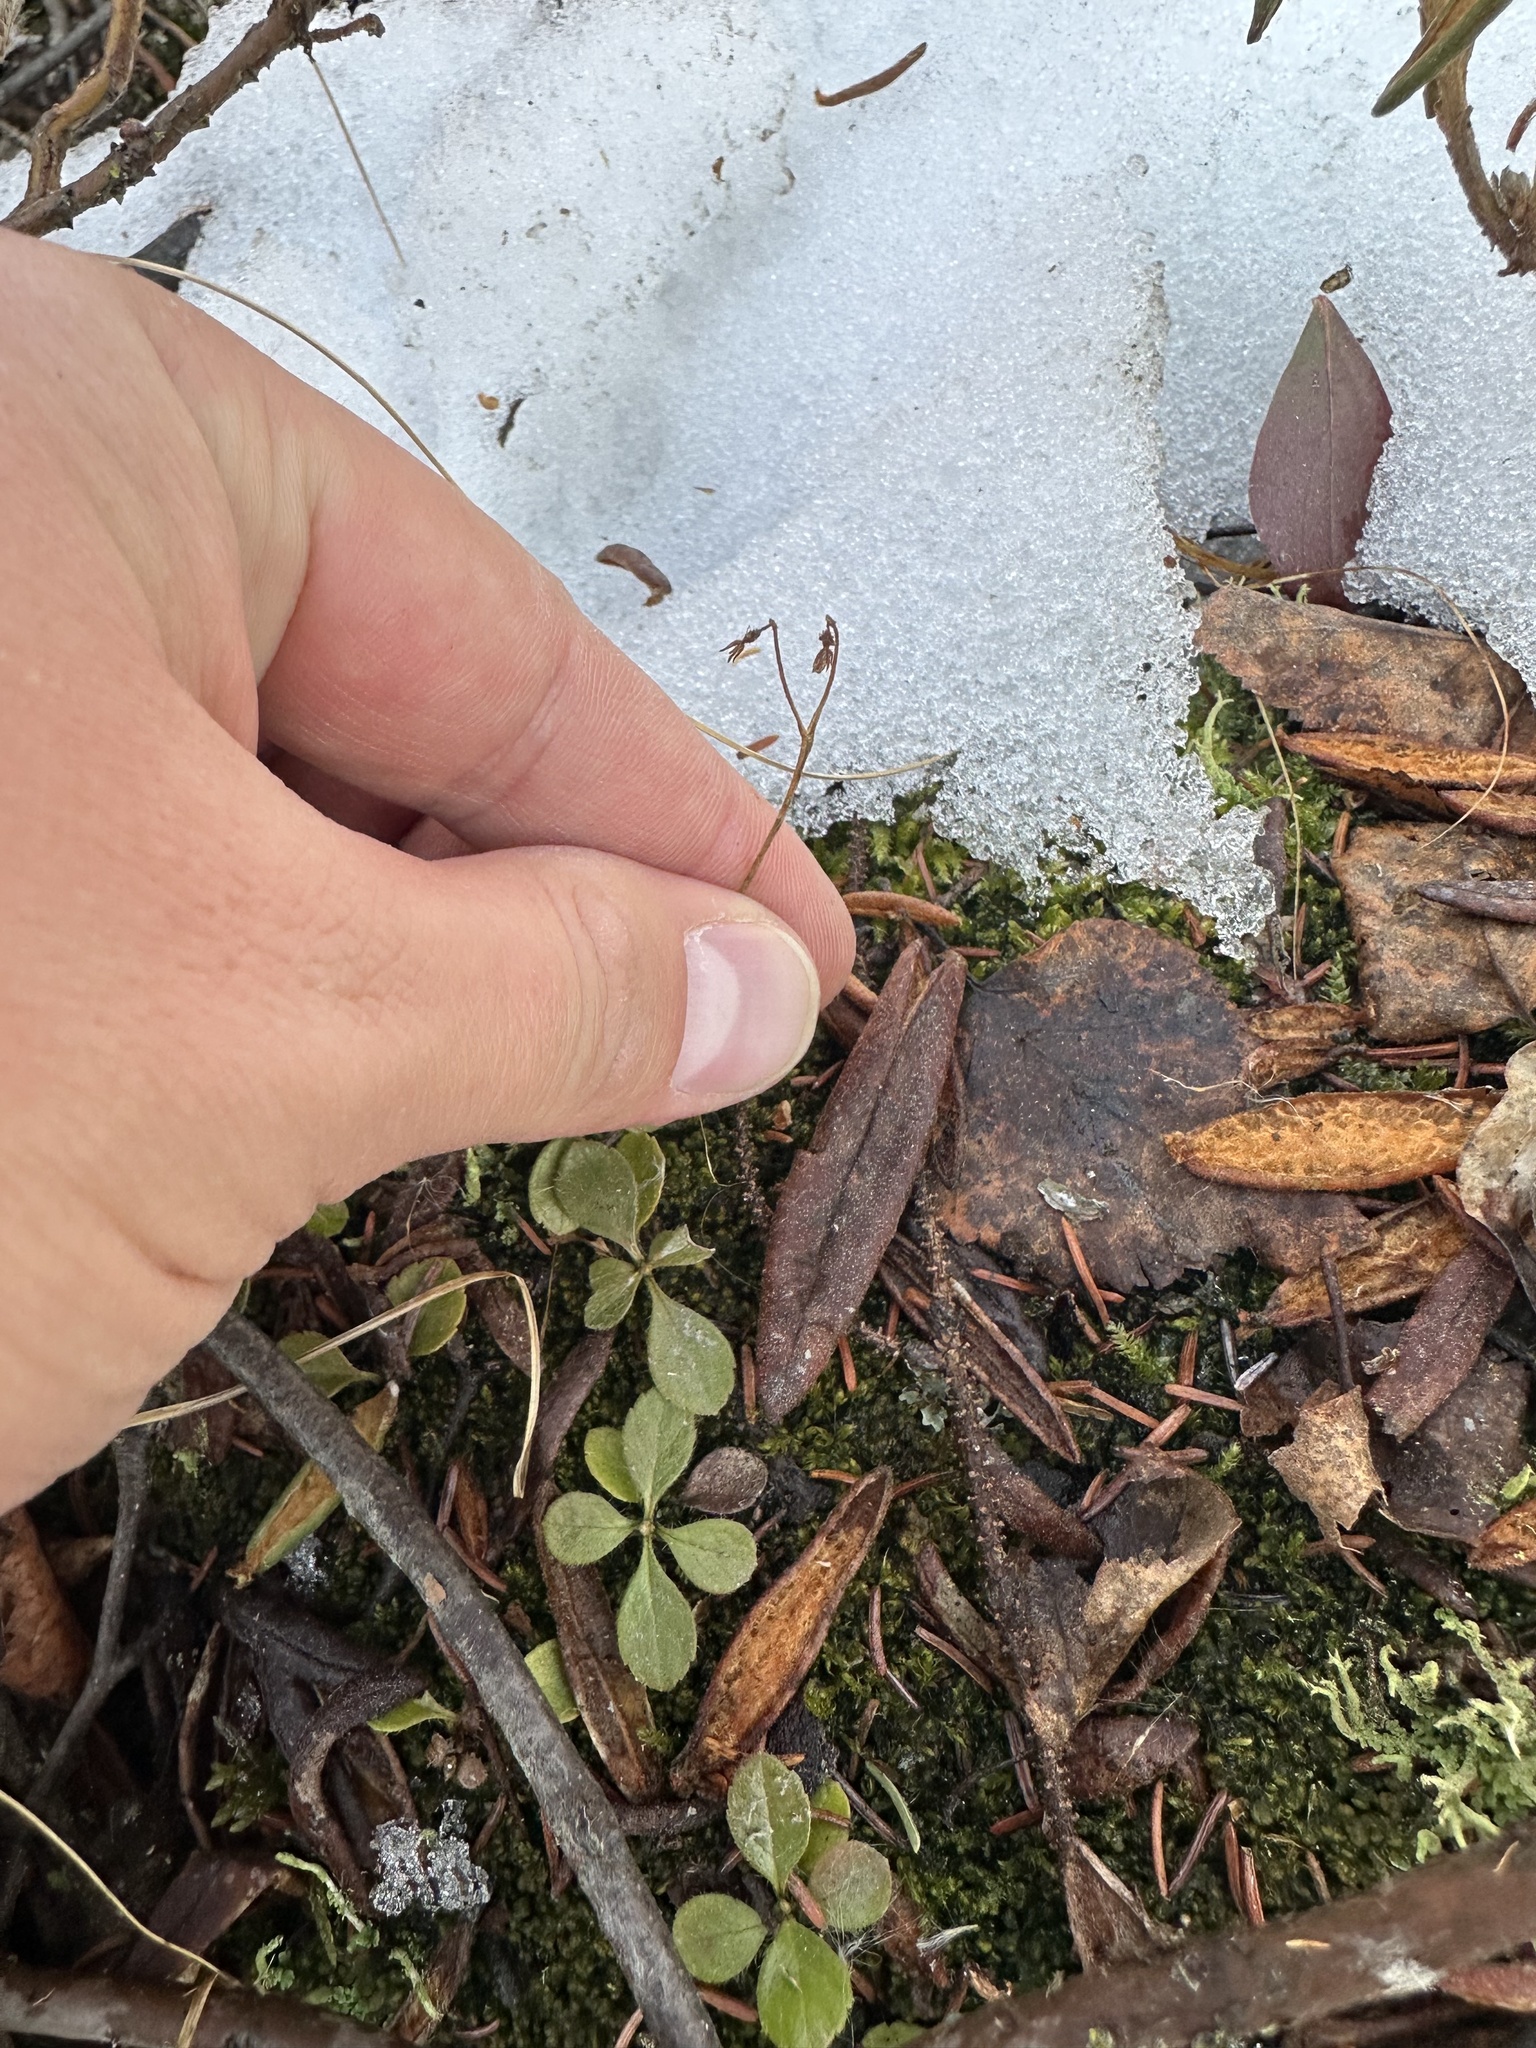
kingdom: Plantae
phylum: Tracheophyta
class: Magnoliopsida
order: Dipsacales
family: Caprifoliaceae
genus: Linnaea
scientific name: Linnaea borealis
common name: Twinflower
